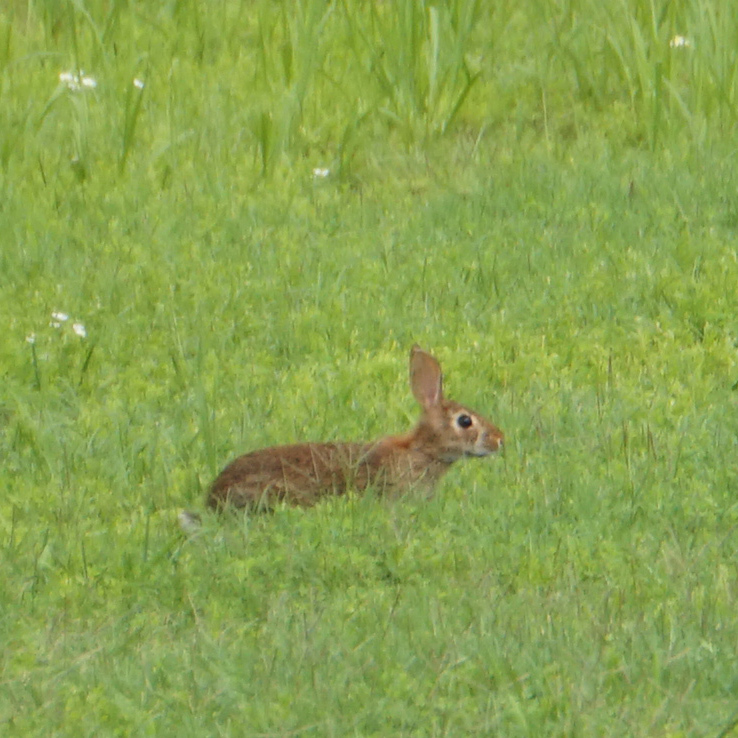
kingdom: Animalia
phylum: Chordata
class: Mammalia
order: Lagomorpha
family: Leporidae
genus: Sylvilagus
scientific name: Sylvilagus floridanus
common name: Eastern cottontail
